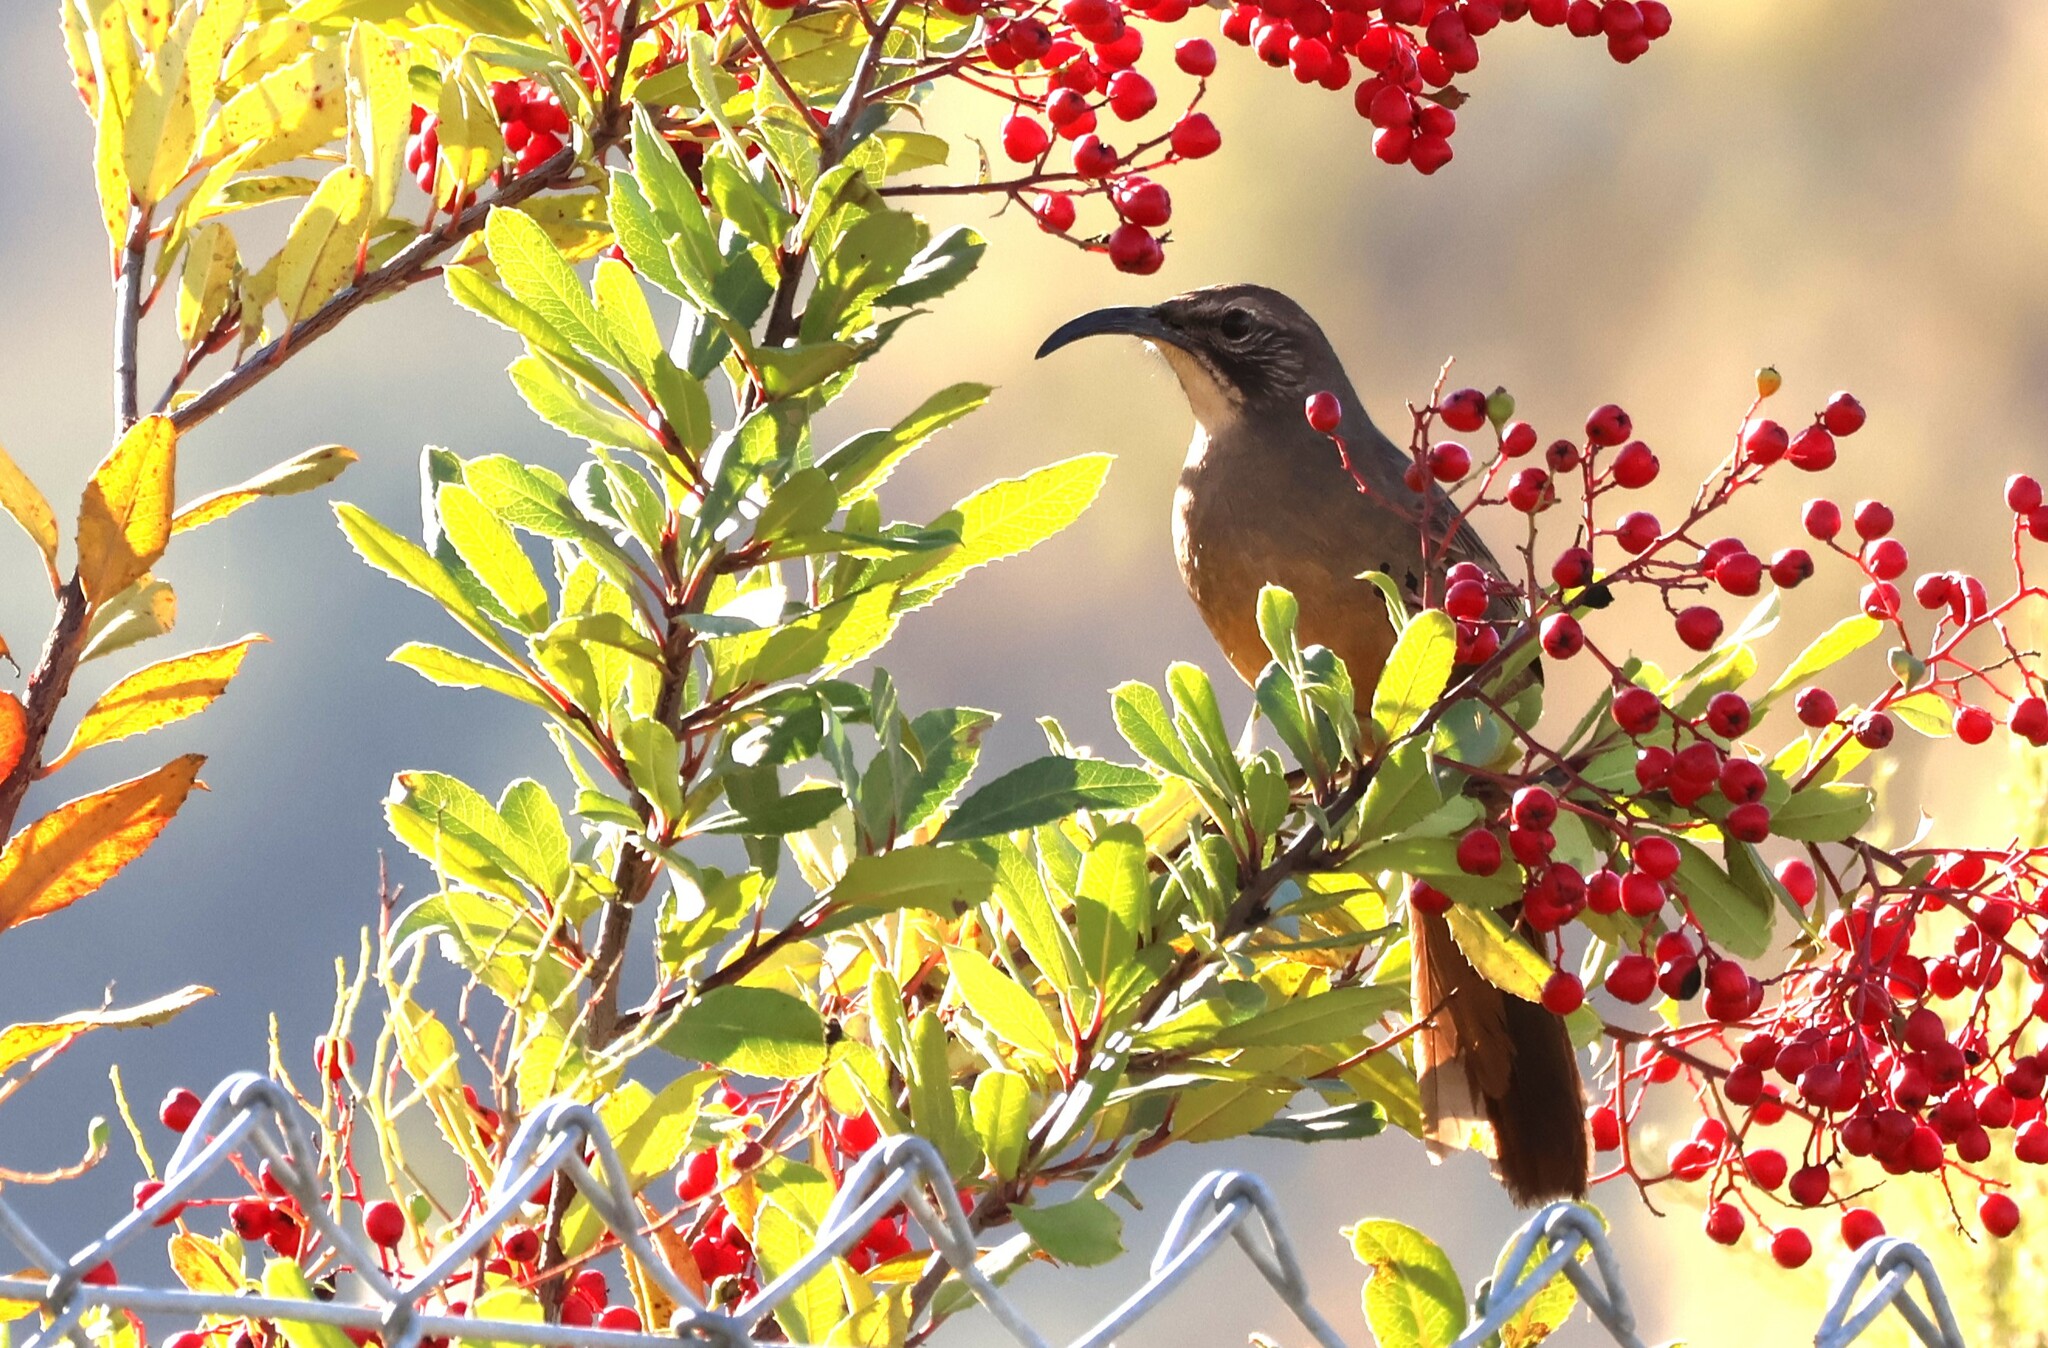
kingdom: Animalia
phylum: Chordata
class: Aves
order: Passeriformes
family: Mimidae
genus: Toxostoma
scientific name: Toxostoma redivivum
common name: California thrasher
